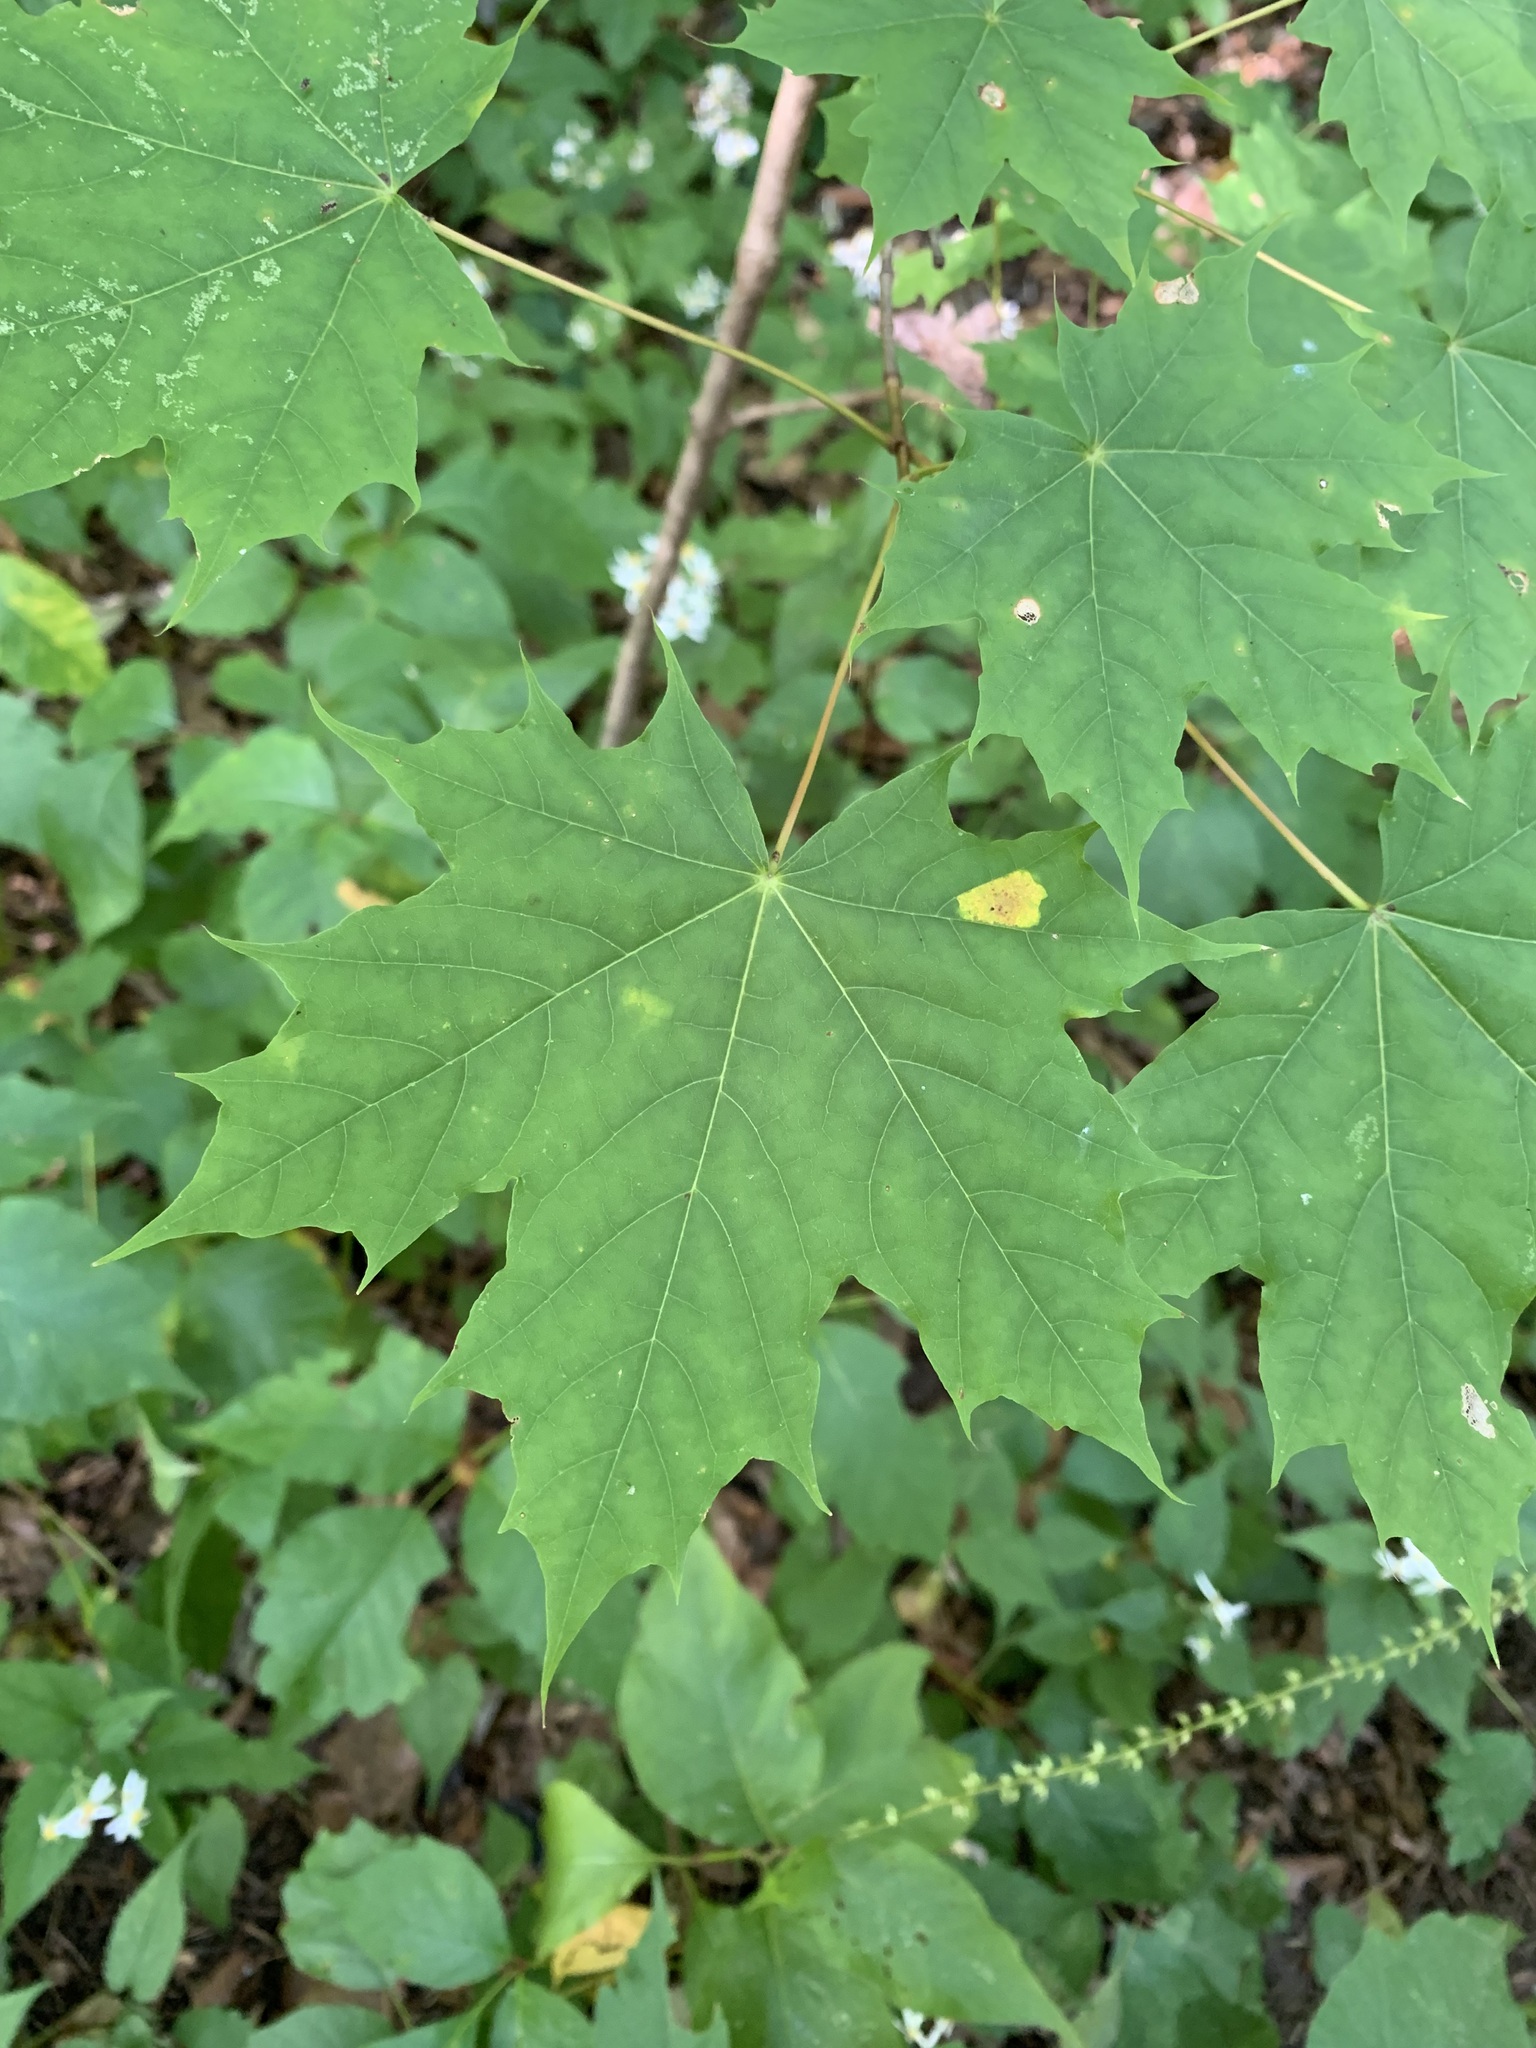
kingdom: Plantae
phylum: Tracheophyta
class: Magnoliopsida
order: Sapindales
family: Sapindaceae
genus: Acer
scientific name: Acer platanoides
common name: Norway maple
